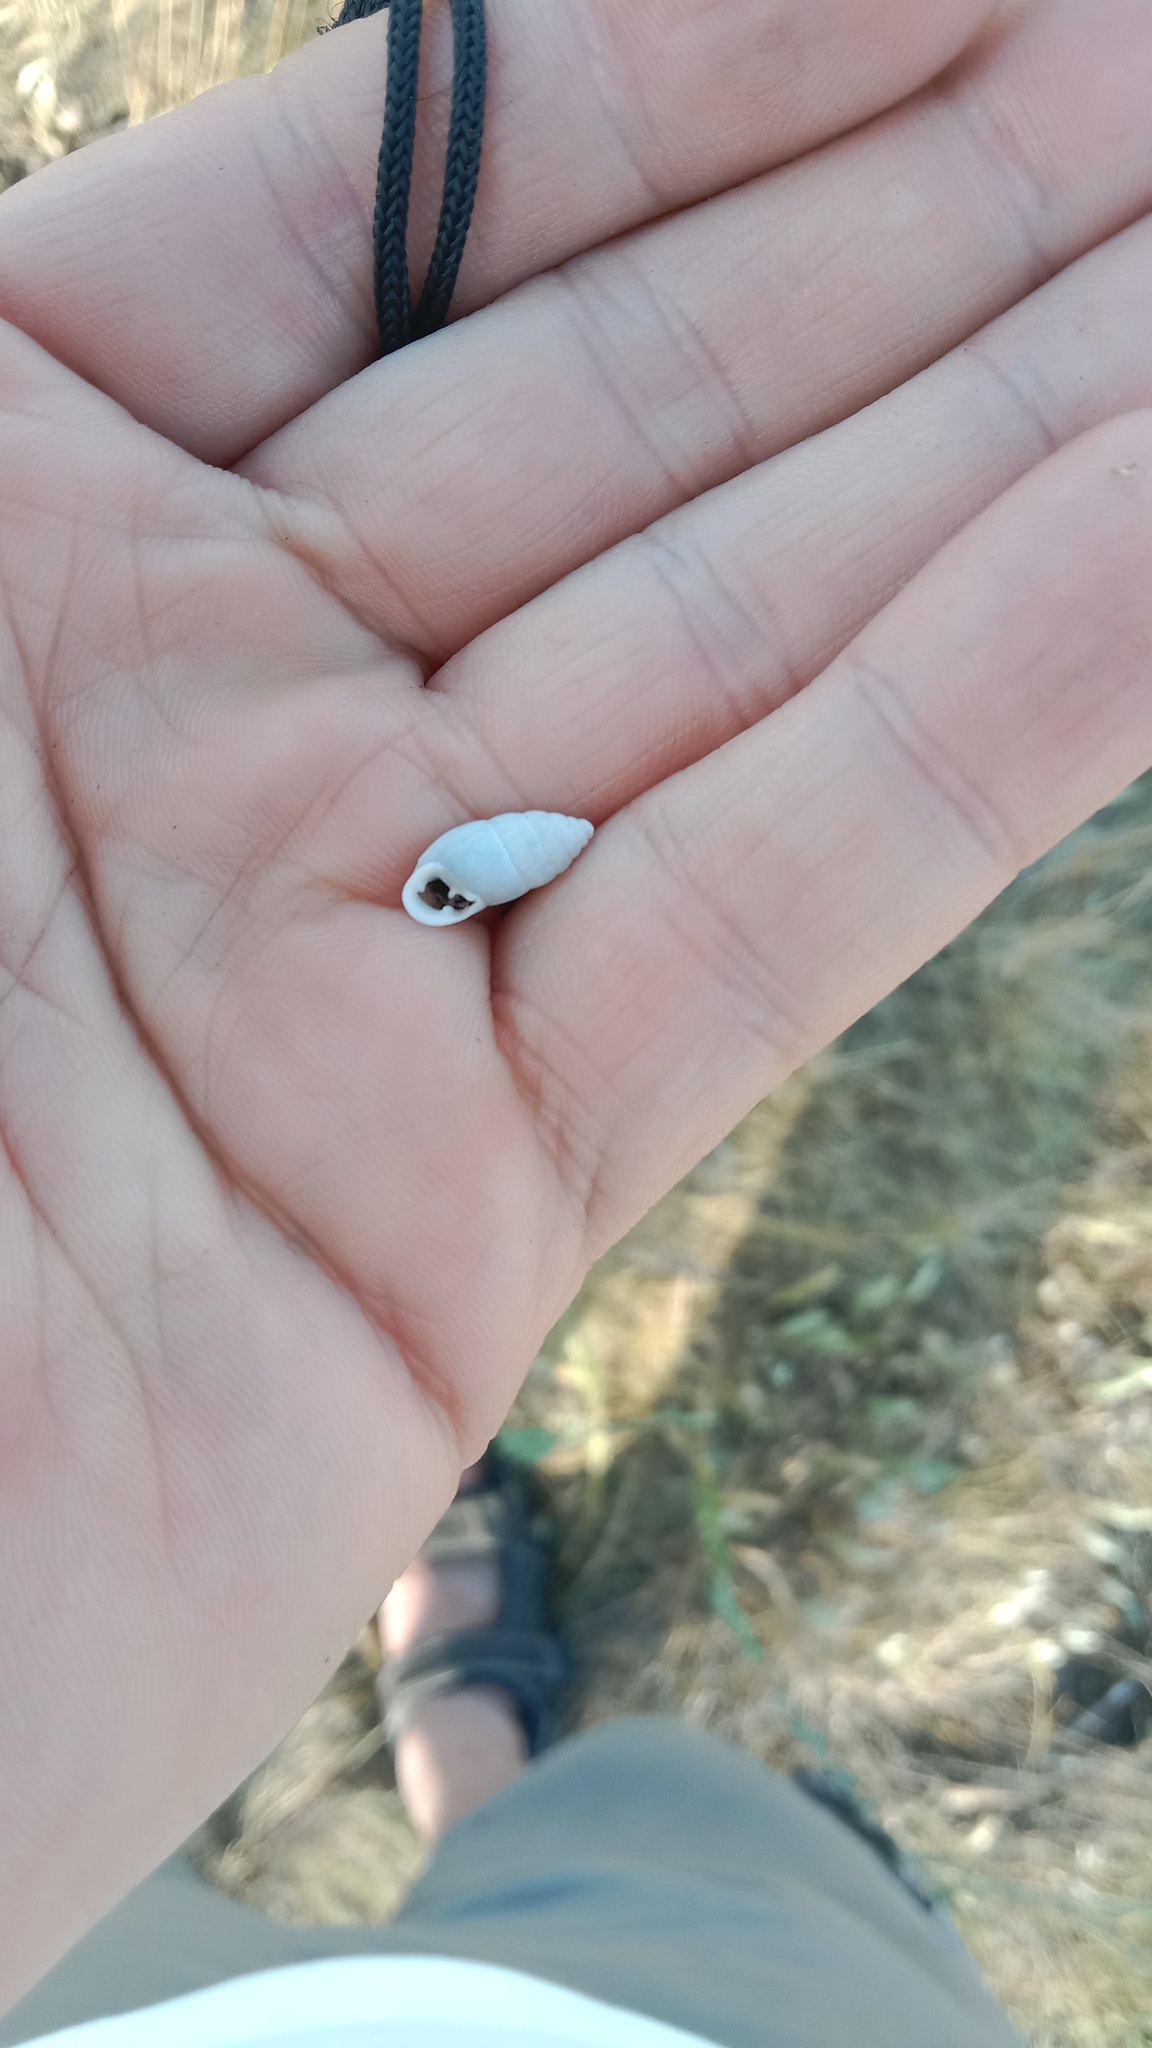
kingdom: Animalia
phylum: Mollusca
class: Gastropoda
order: Stylommatophora
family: Enidae
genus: Chondrula
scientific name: Chondrula tridens
